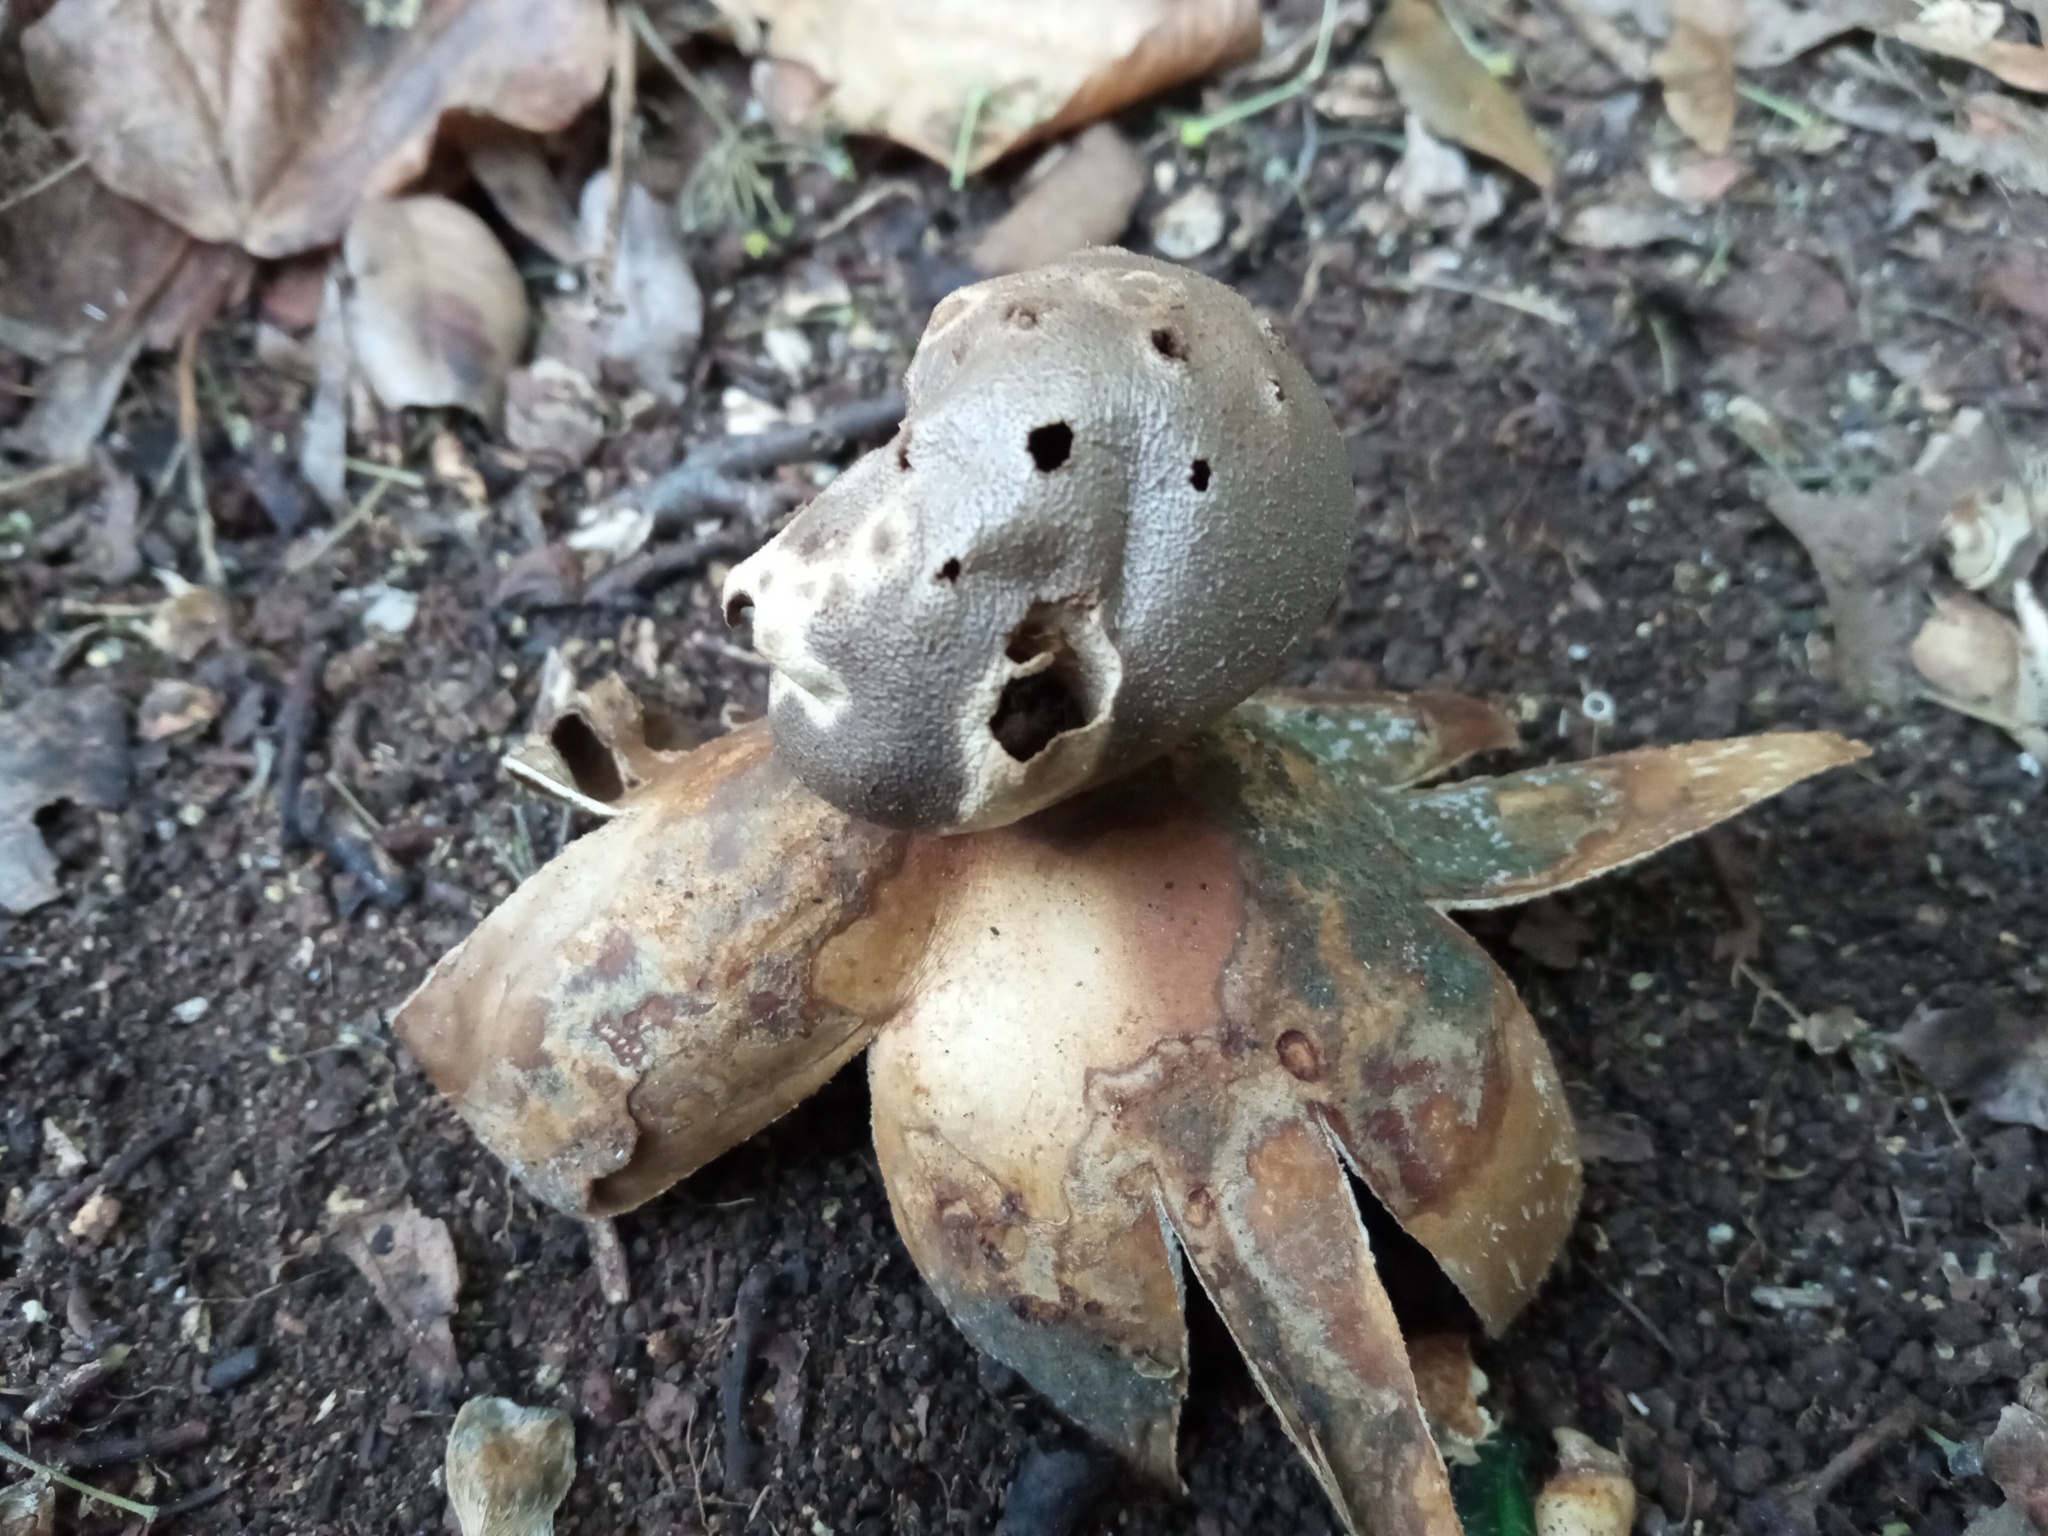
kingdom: Fungi
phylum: Basidiomycota
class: Agaricomycetes
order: Geastrales
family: Geastraceae
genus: Myriostoma
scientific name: Myriostoma coliforme
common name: Pepper pot
